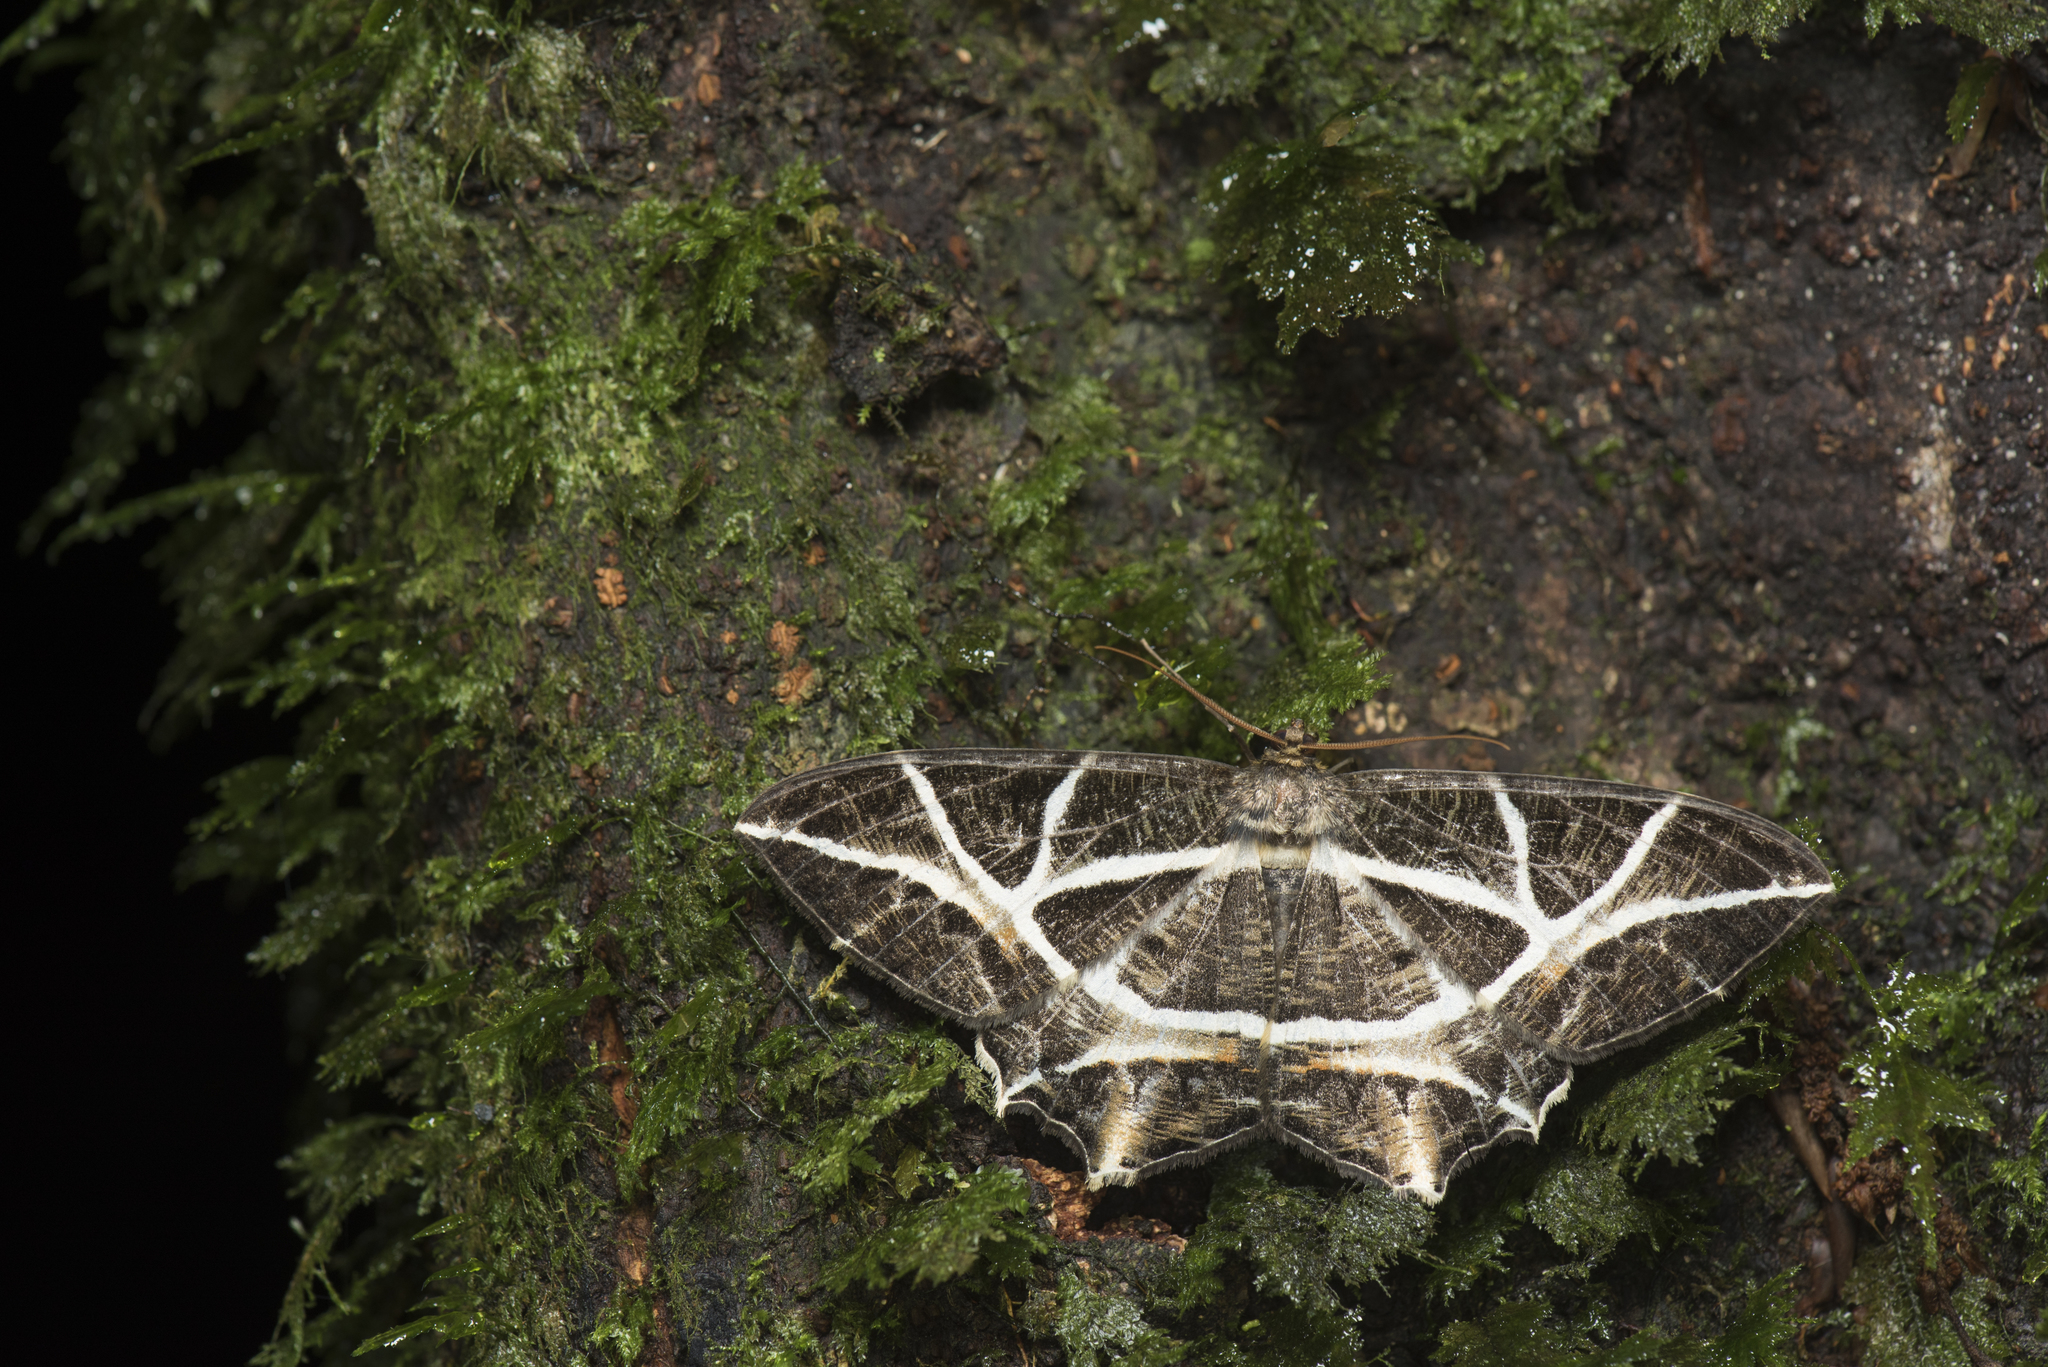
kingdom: Animalia
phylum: Arthropoda
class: Insecta
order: Lepidoptera
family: Geometridae
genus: Mesastrape
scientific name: Mesastrape fulguraria
